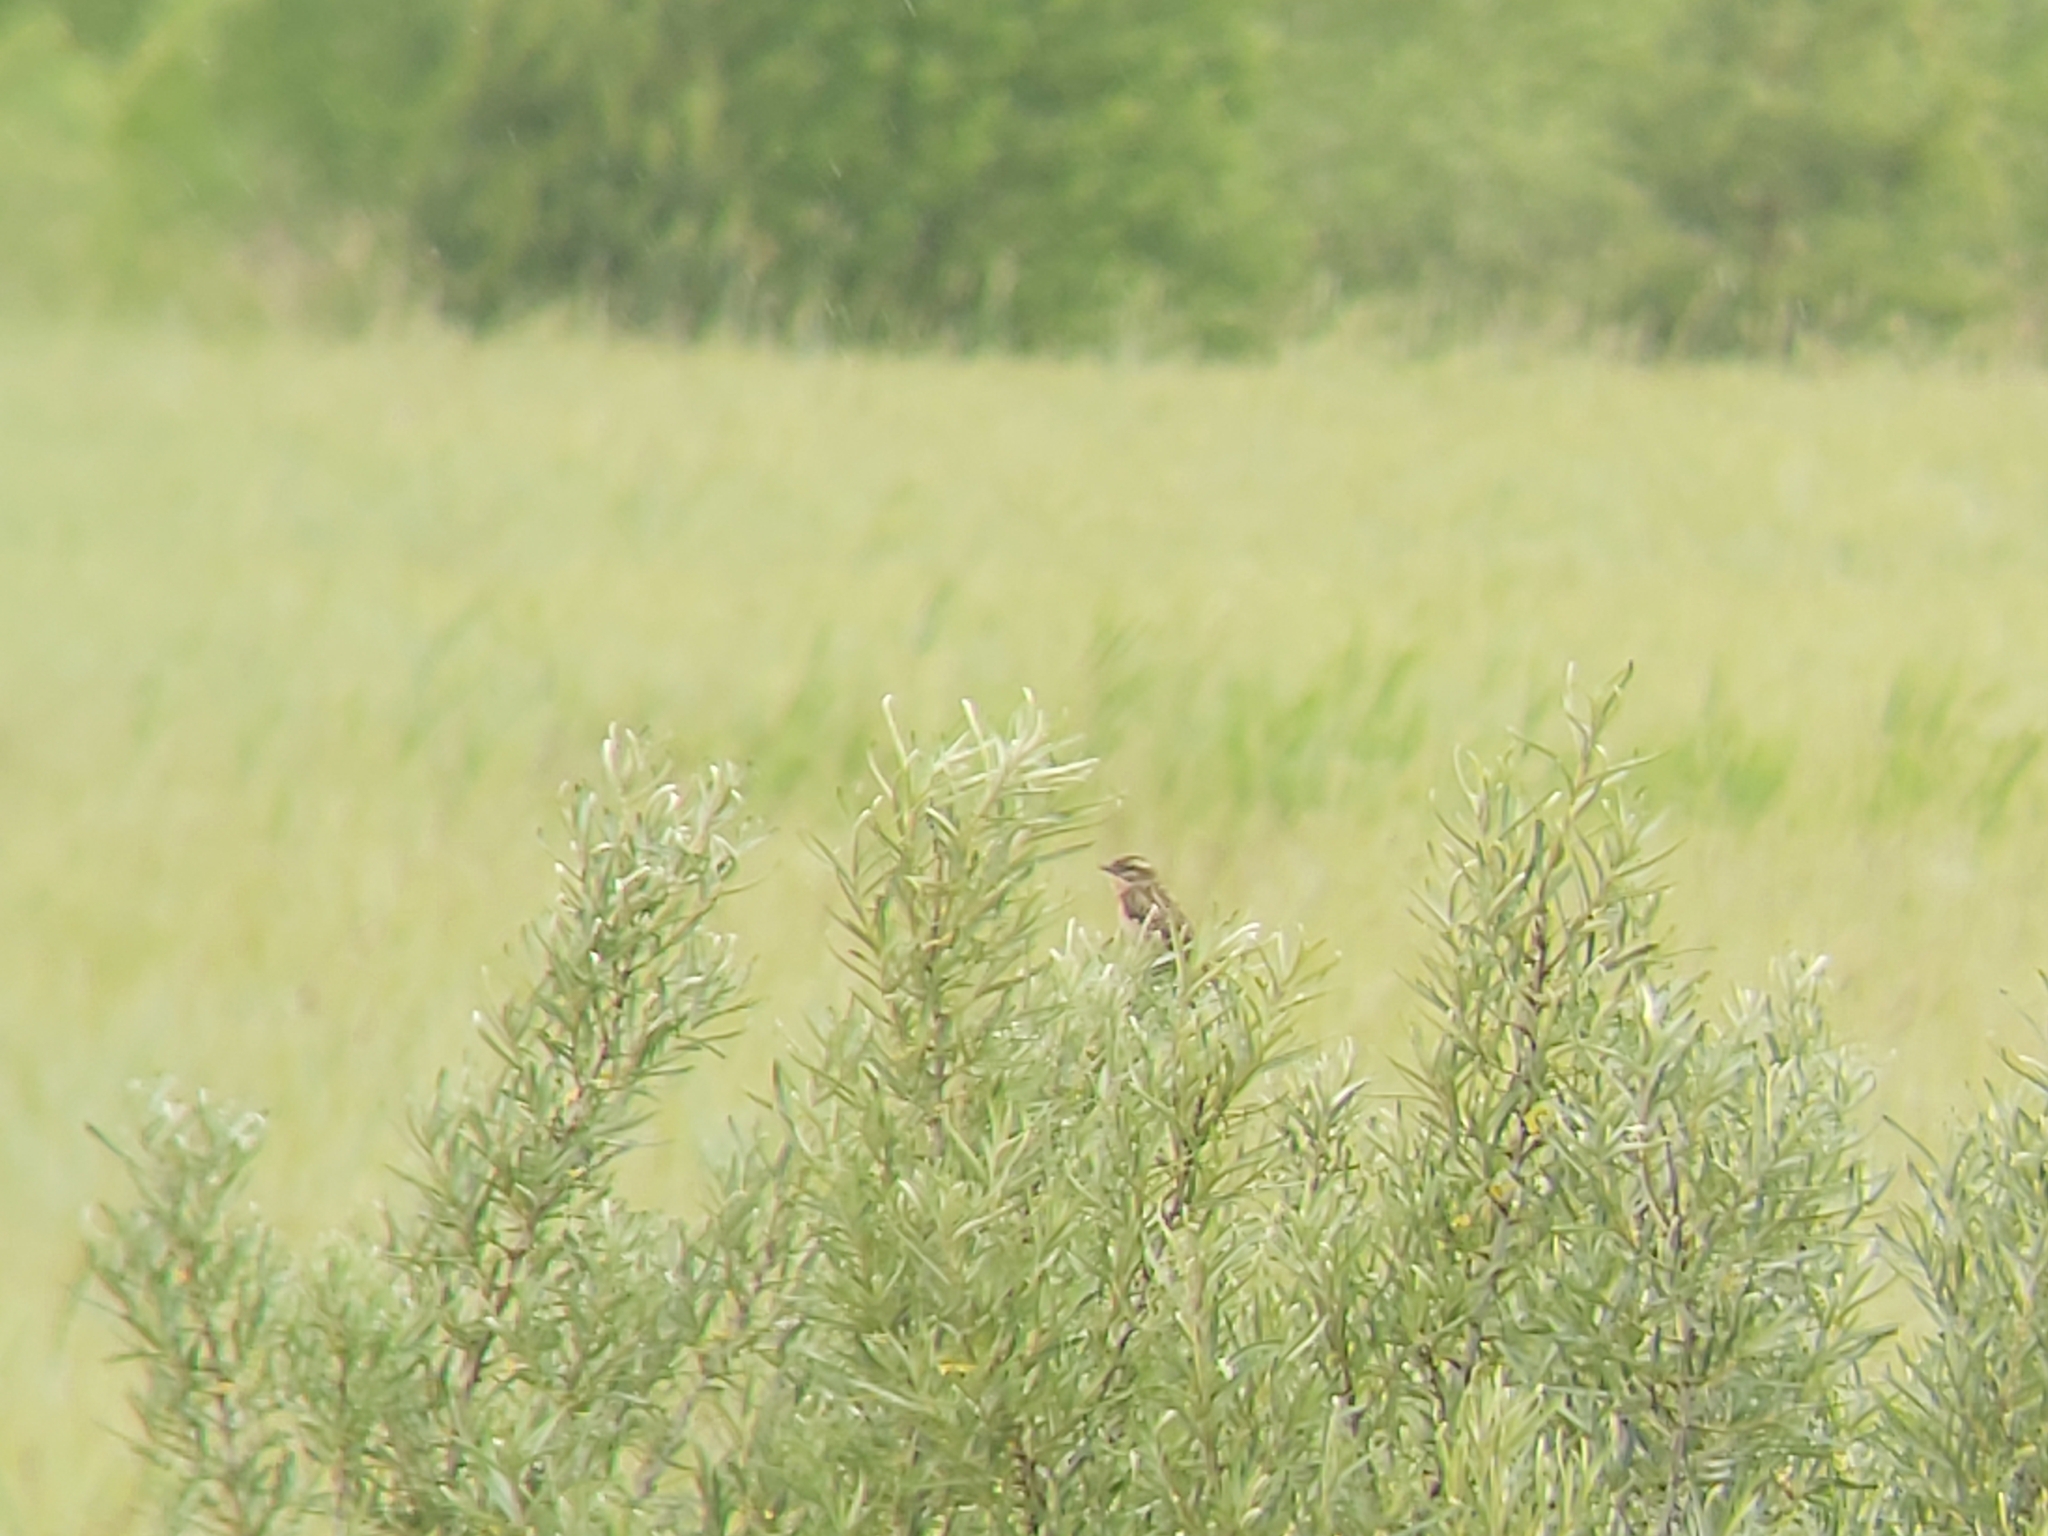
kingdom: Animalia
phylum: Chordata
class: Aves
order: Passeriformes
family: Muscicapidae
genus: Saxicola
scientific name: Saxicola rubetra
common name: Whinchat
